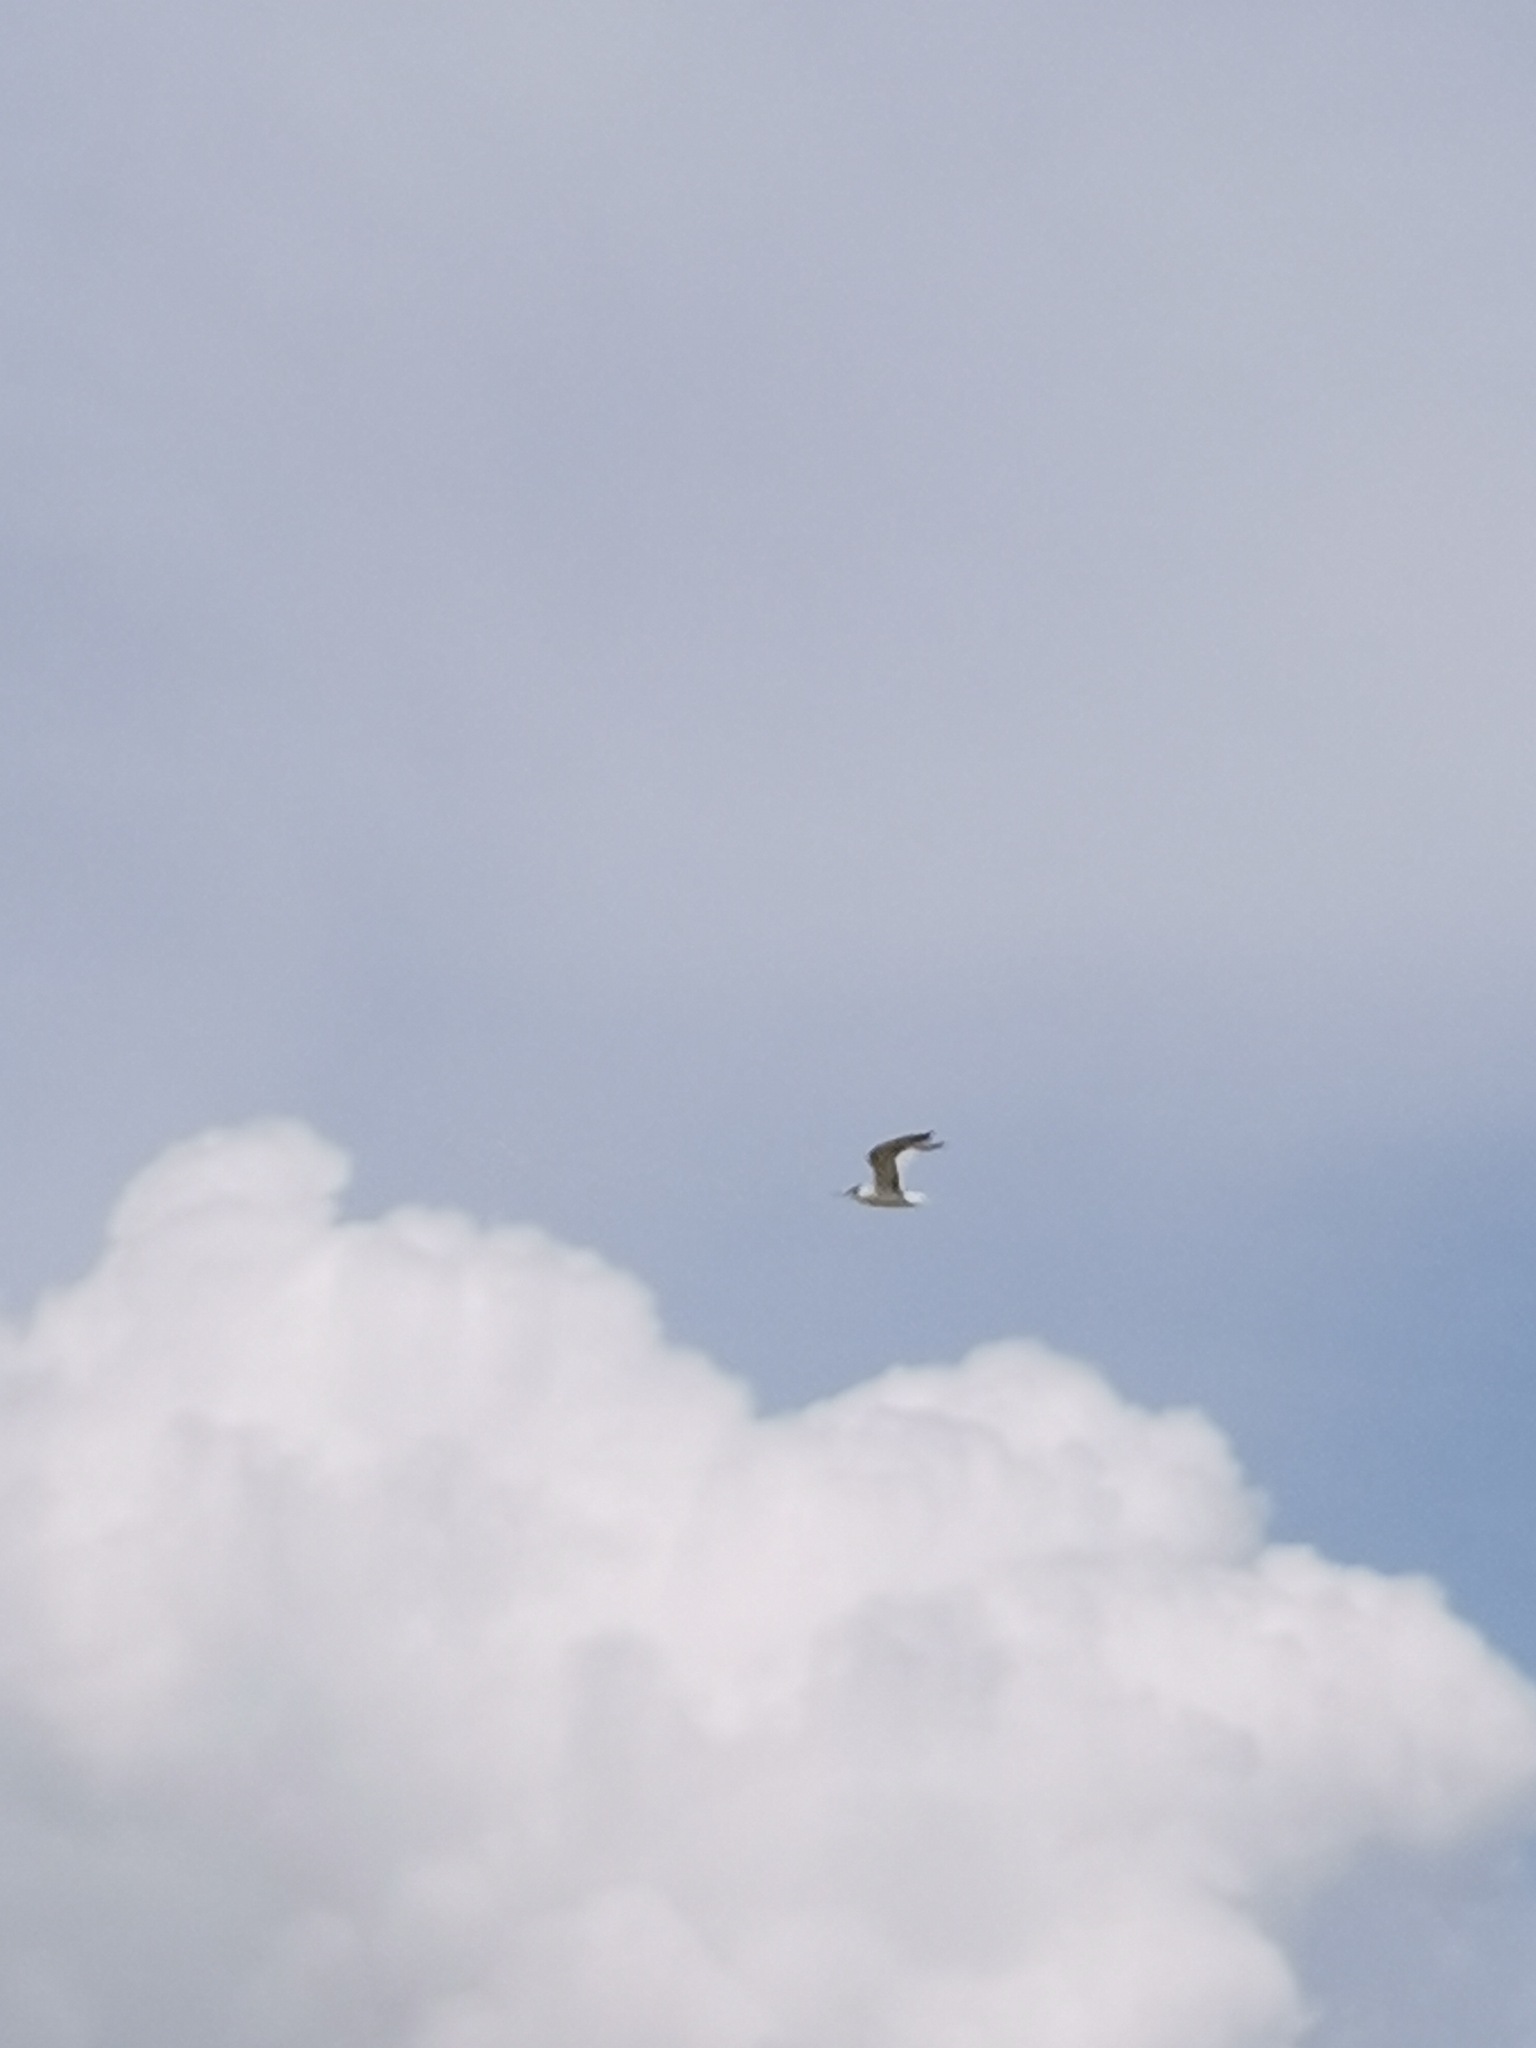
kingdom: Animalia
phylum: Chordata
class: Aves
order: Charadriiformes
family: Laridae
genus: Hydroprogne
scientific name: Hydroprogne caspia
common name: Caspian tern
